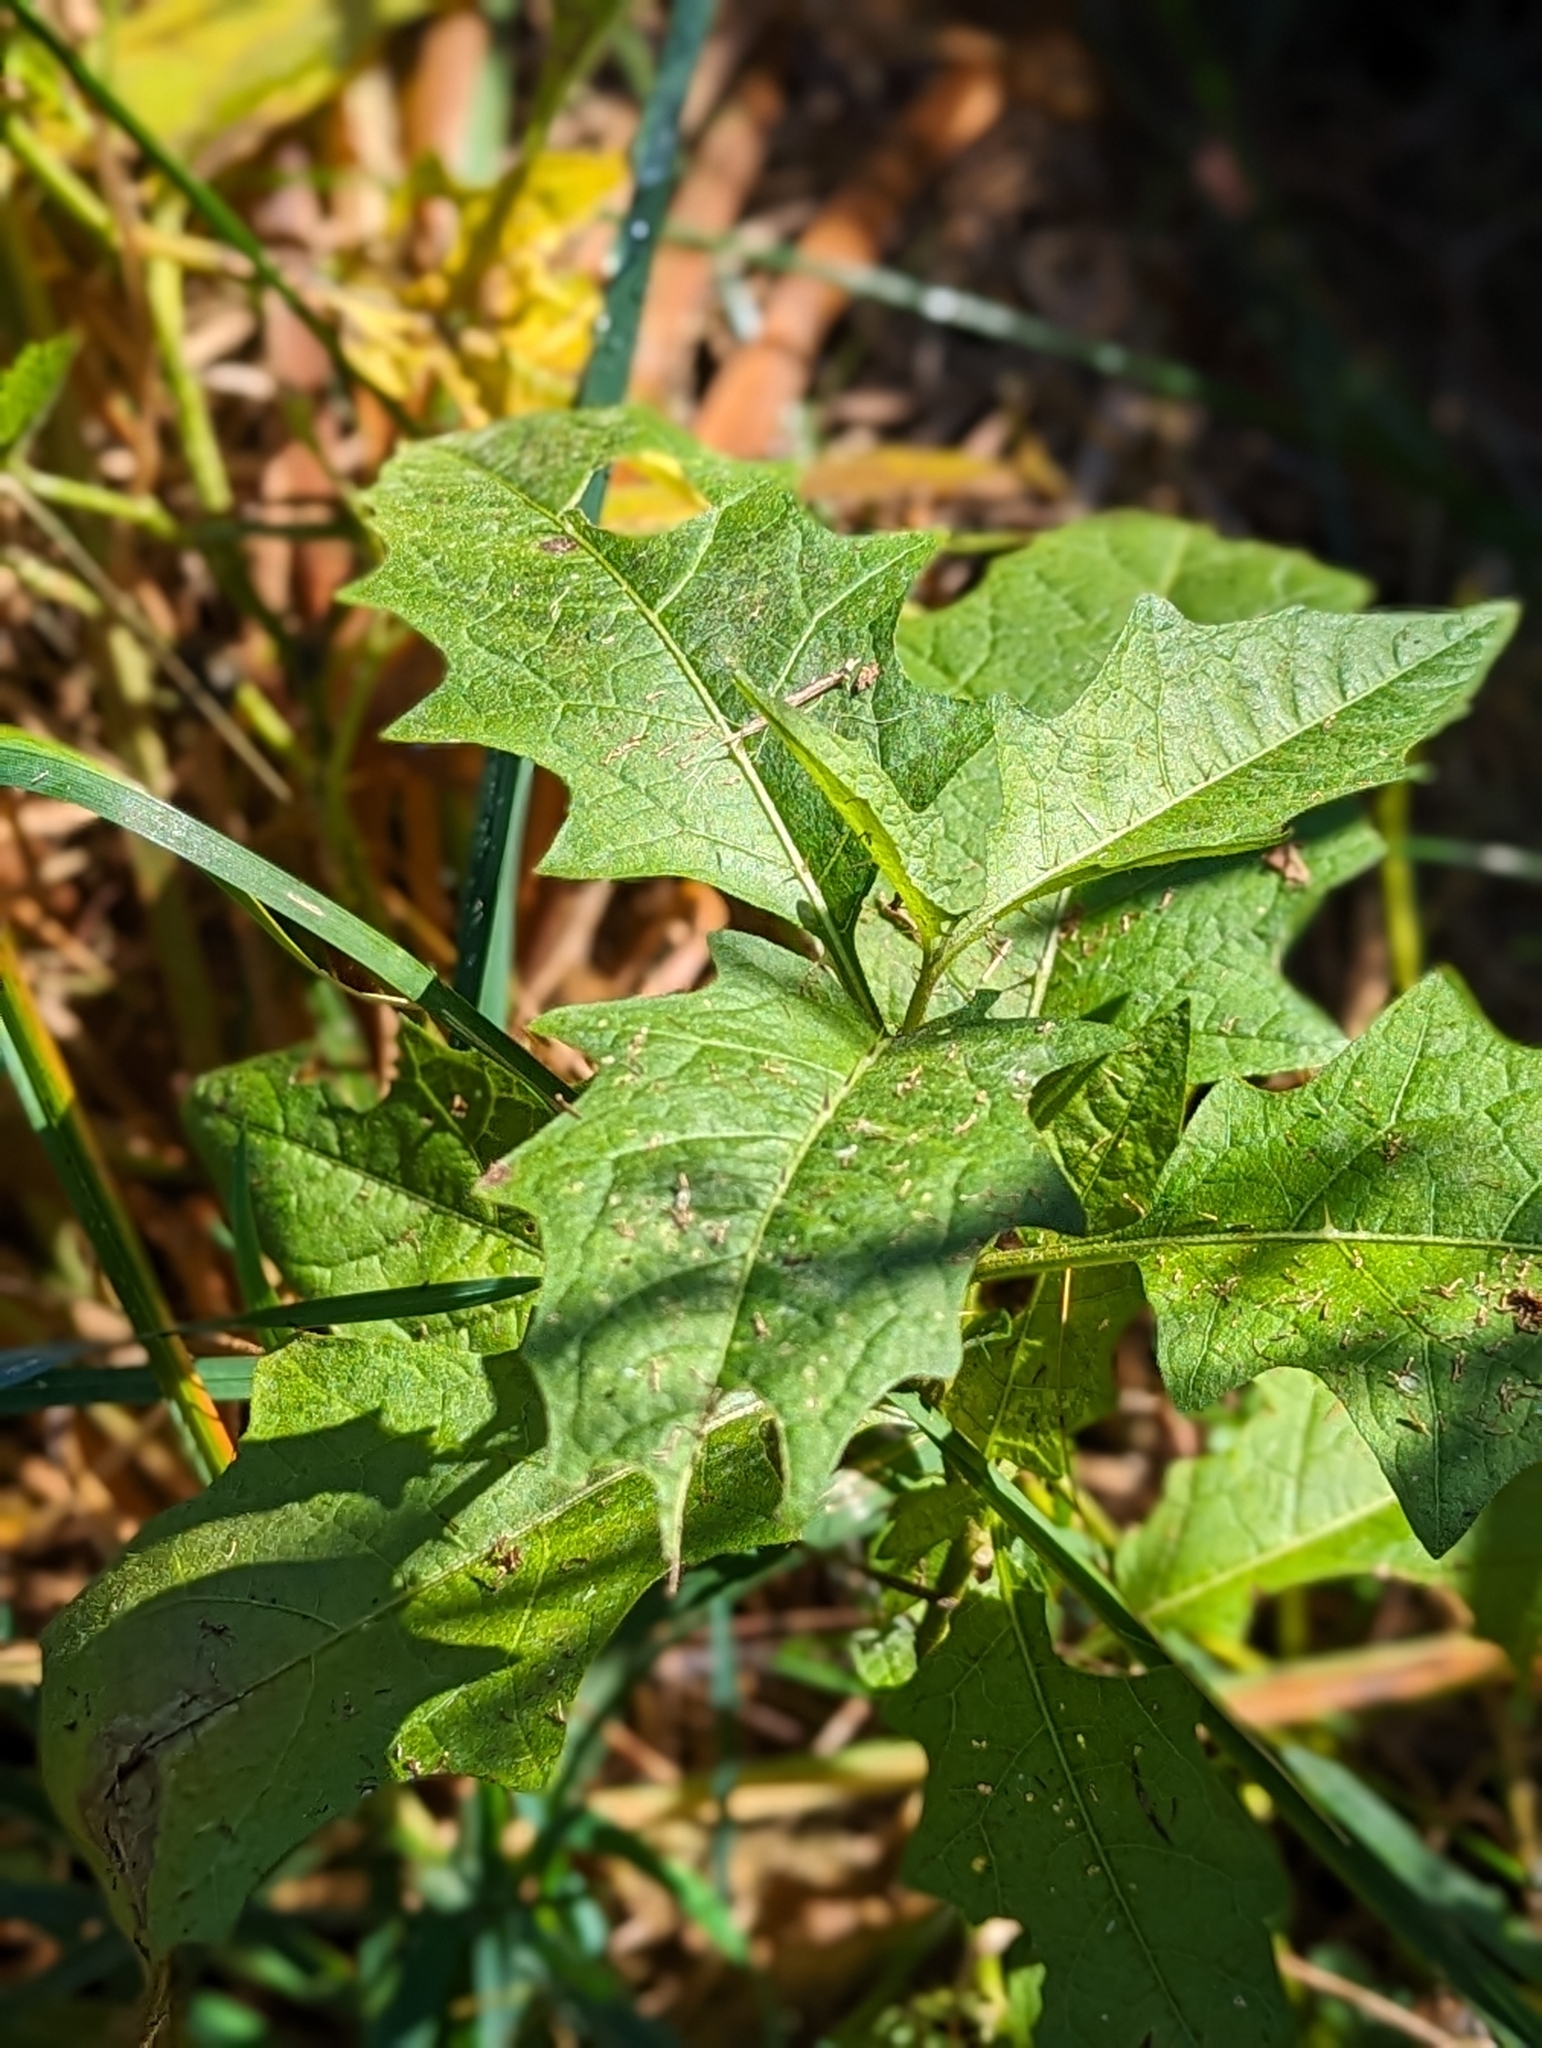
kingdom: Plantae
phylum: Tracheophyta
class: Magnoliopsida
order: Solanales
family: Solanaceae
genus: Solanum
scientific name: Solanum carolinense
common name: Horse-nettle
